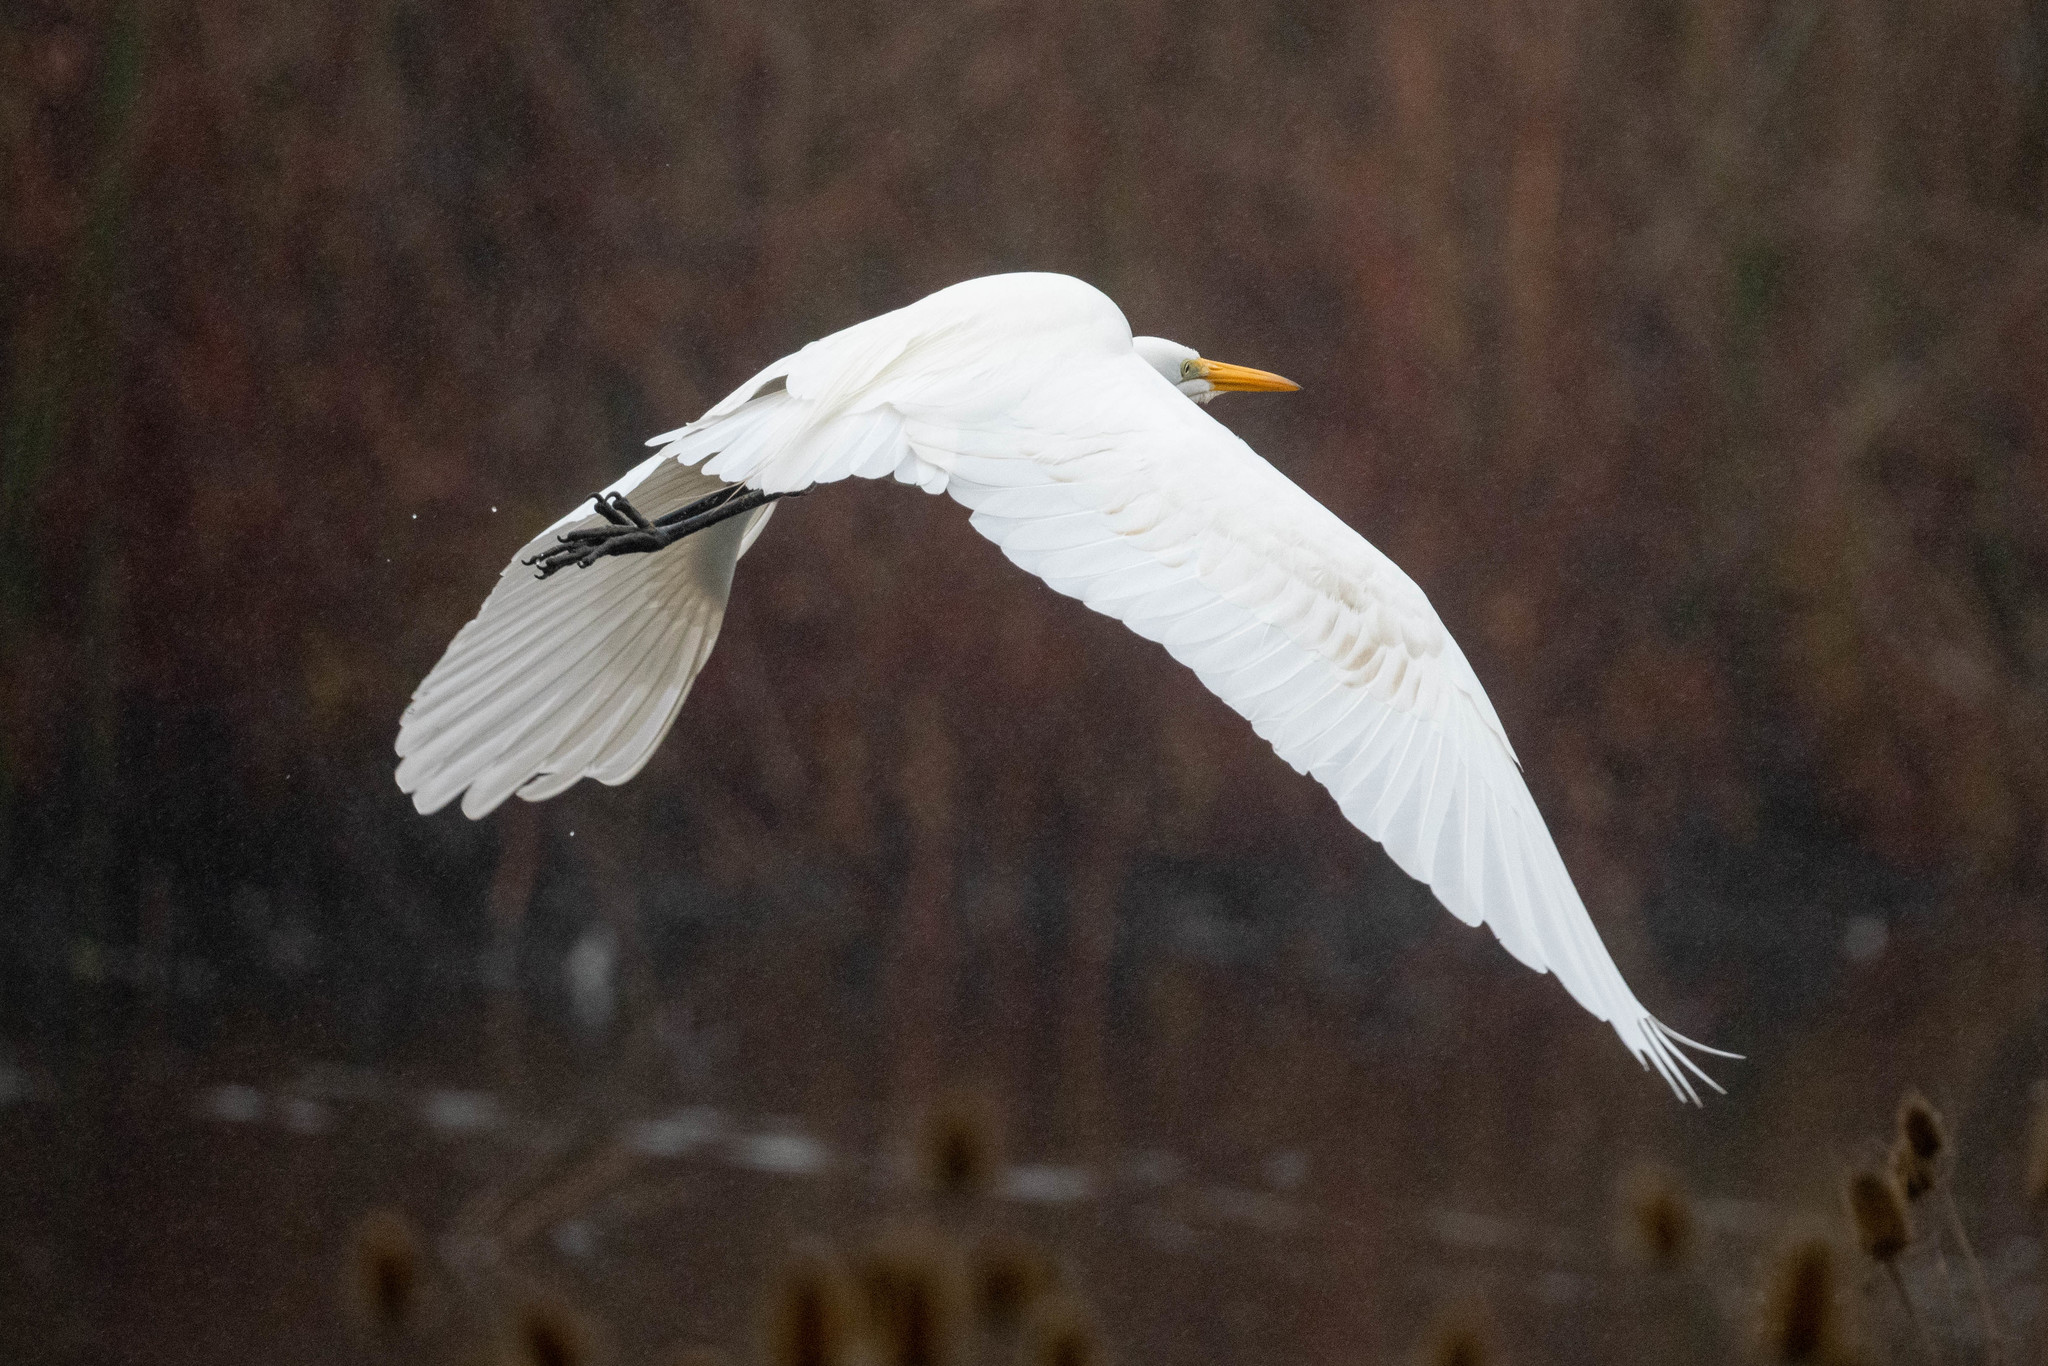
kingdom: Animalia
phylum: Chordata
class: Aves
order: Pelecaniformes
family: Ardeidae
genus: Ardea
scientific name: Ardea alba
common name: Great egret
